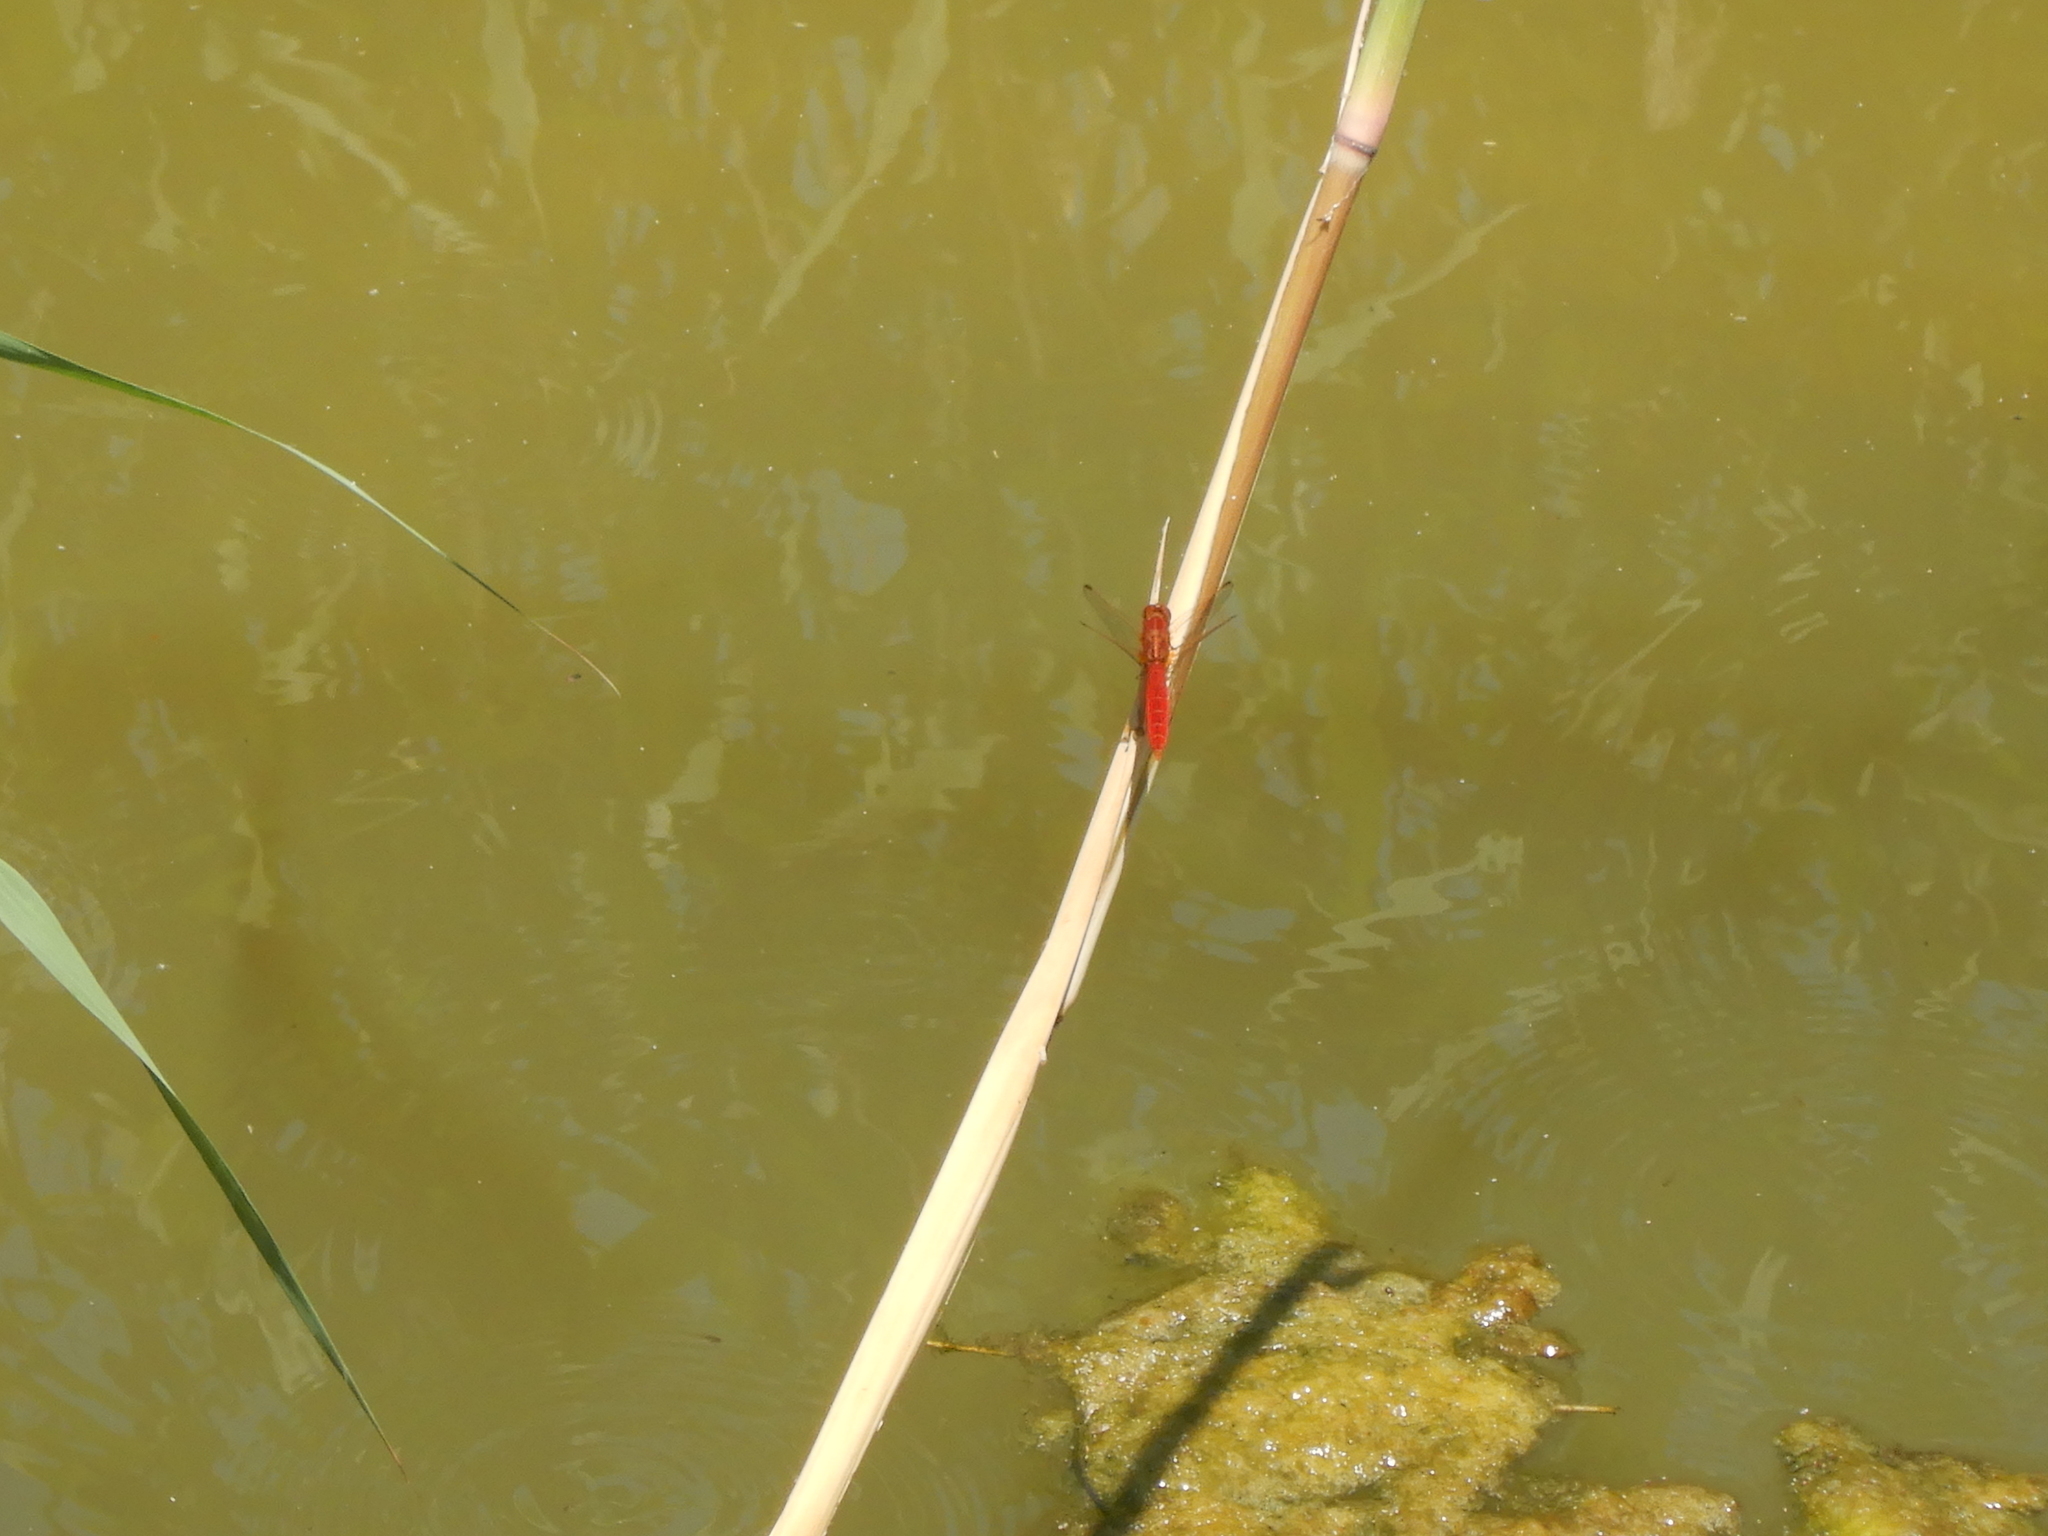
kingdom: Animalia
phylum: Arthropoda
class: Insecta
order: Odonata
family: Libellulidae
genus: Crocothemis
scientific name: Crocothemis erythraea
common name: Scarlet dragonfly
